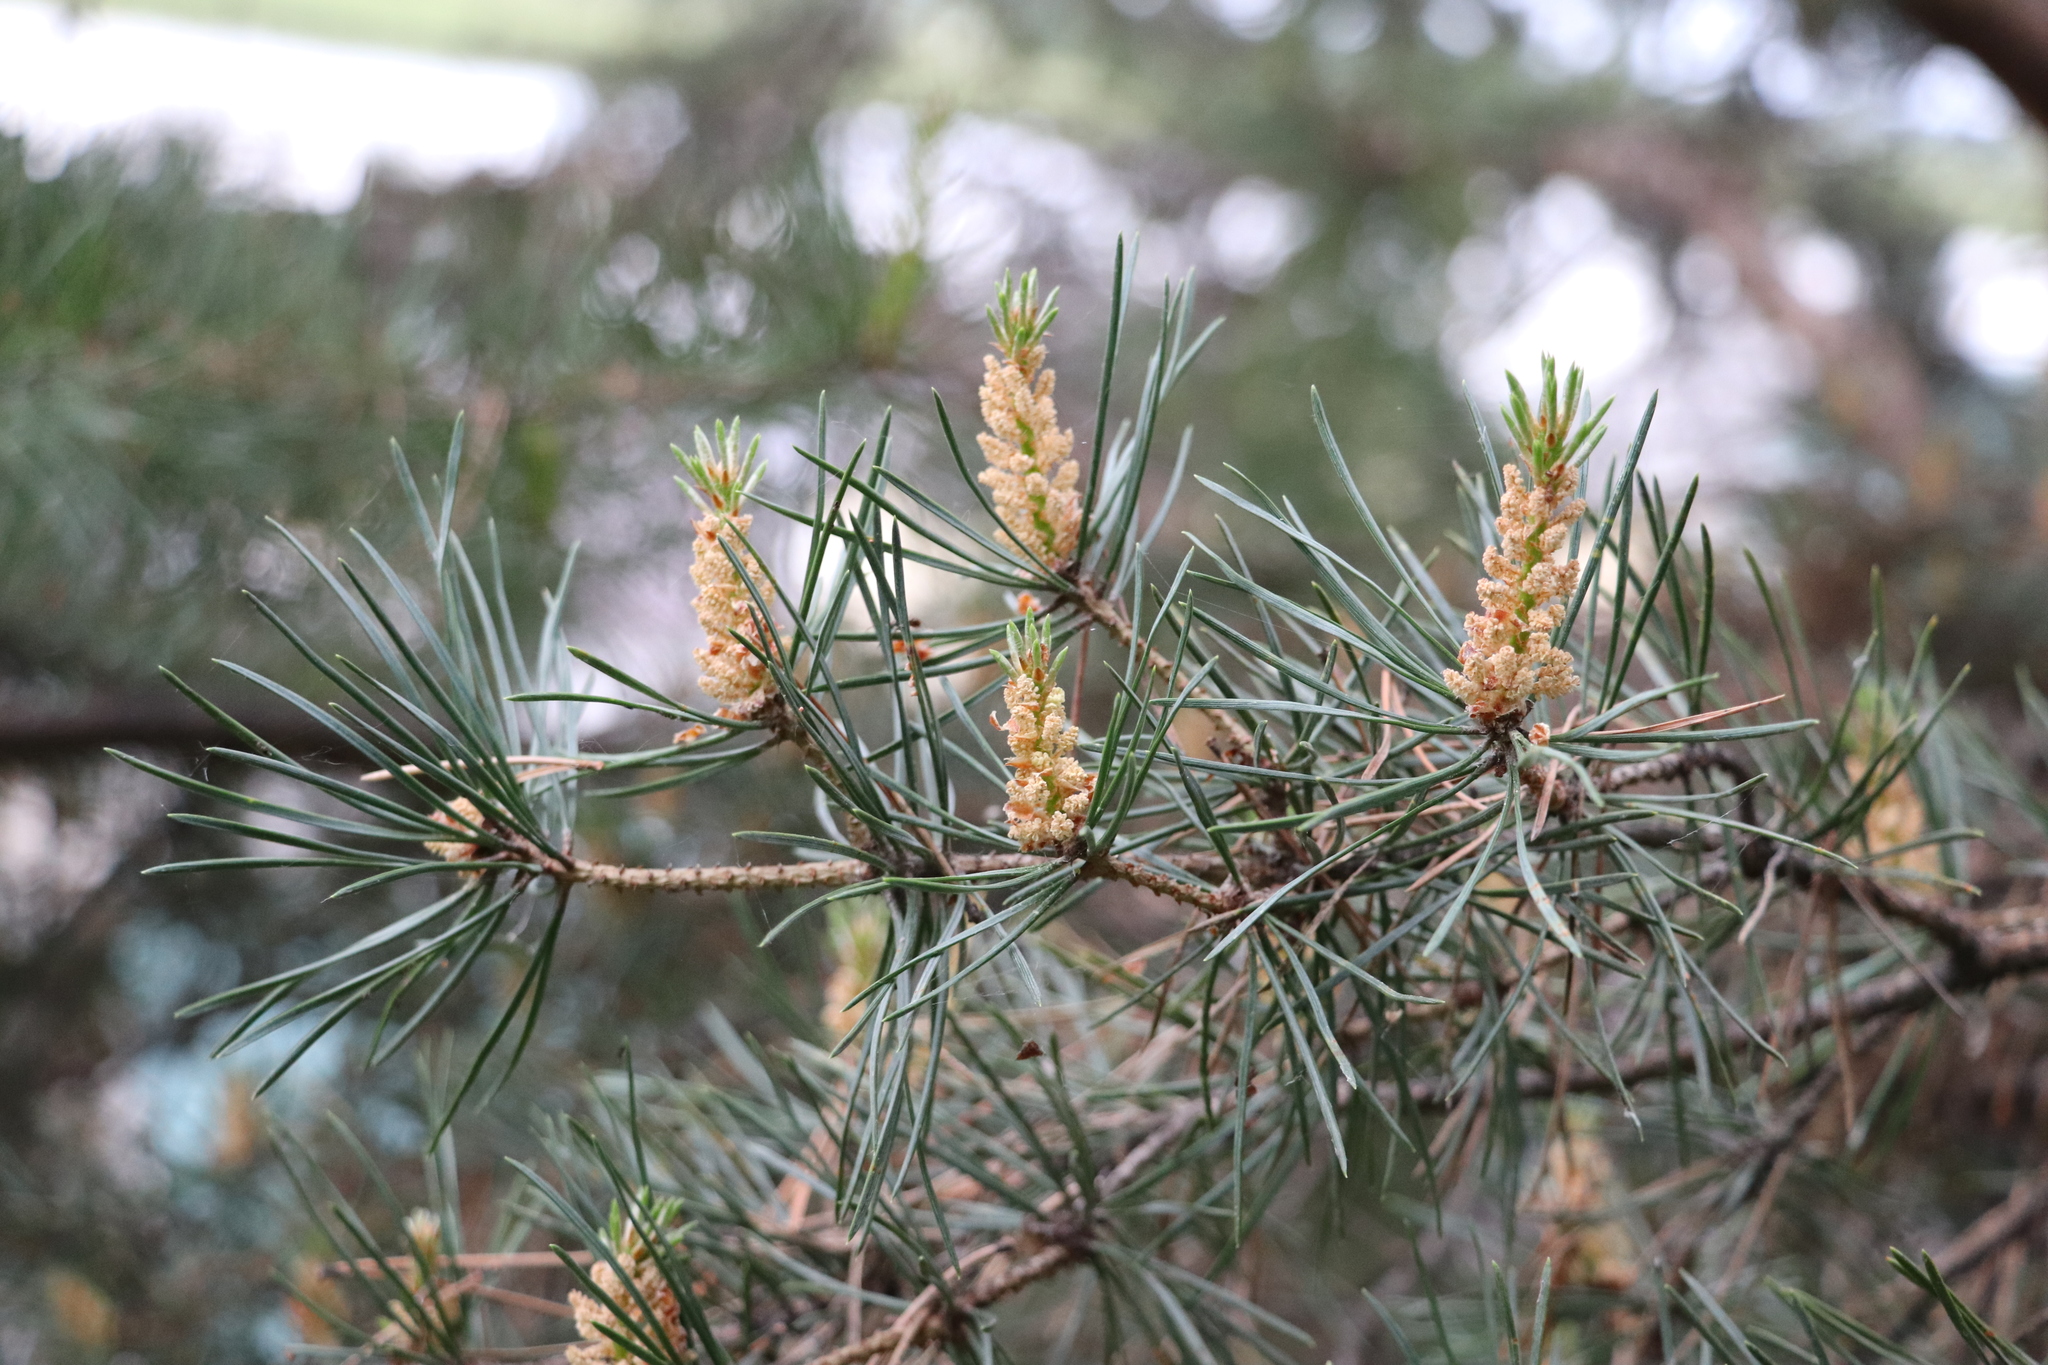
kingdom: Plantae
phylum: Tracheophyta
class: Pinopsida
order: Pinales
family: Pinaceae
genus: Pinus
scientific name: Pinus sylvestris
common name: Scots pine
